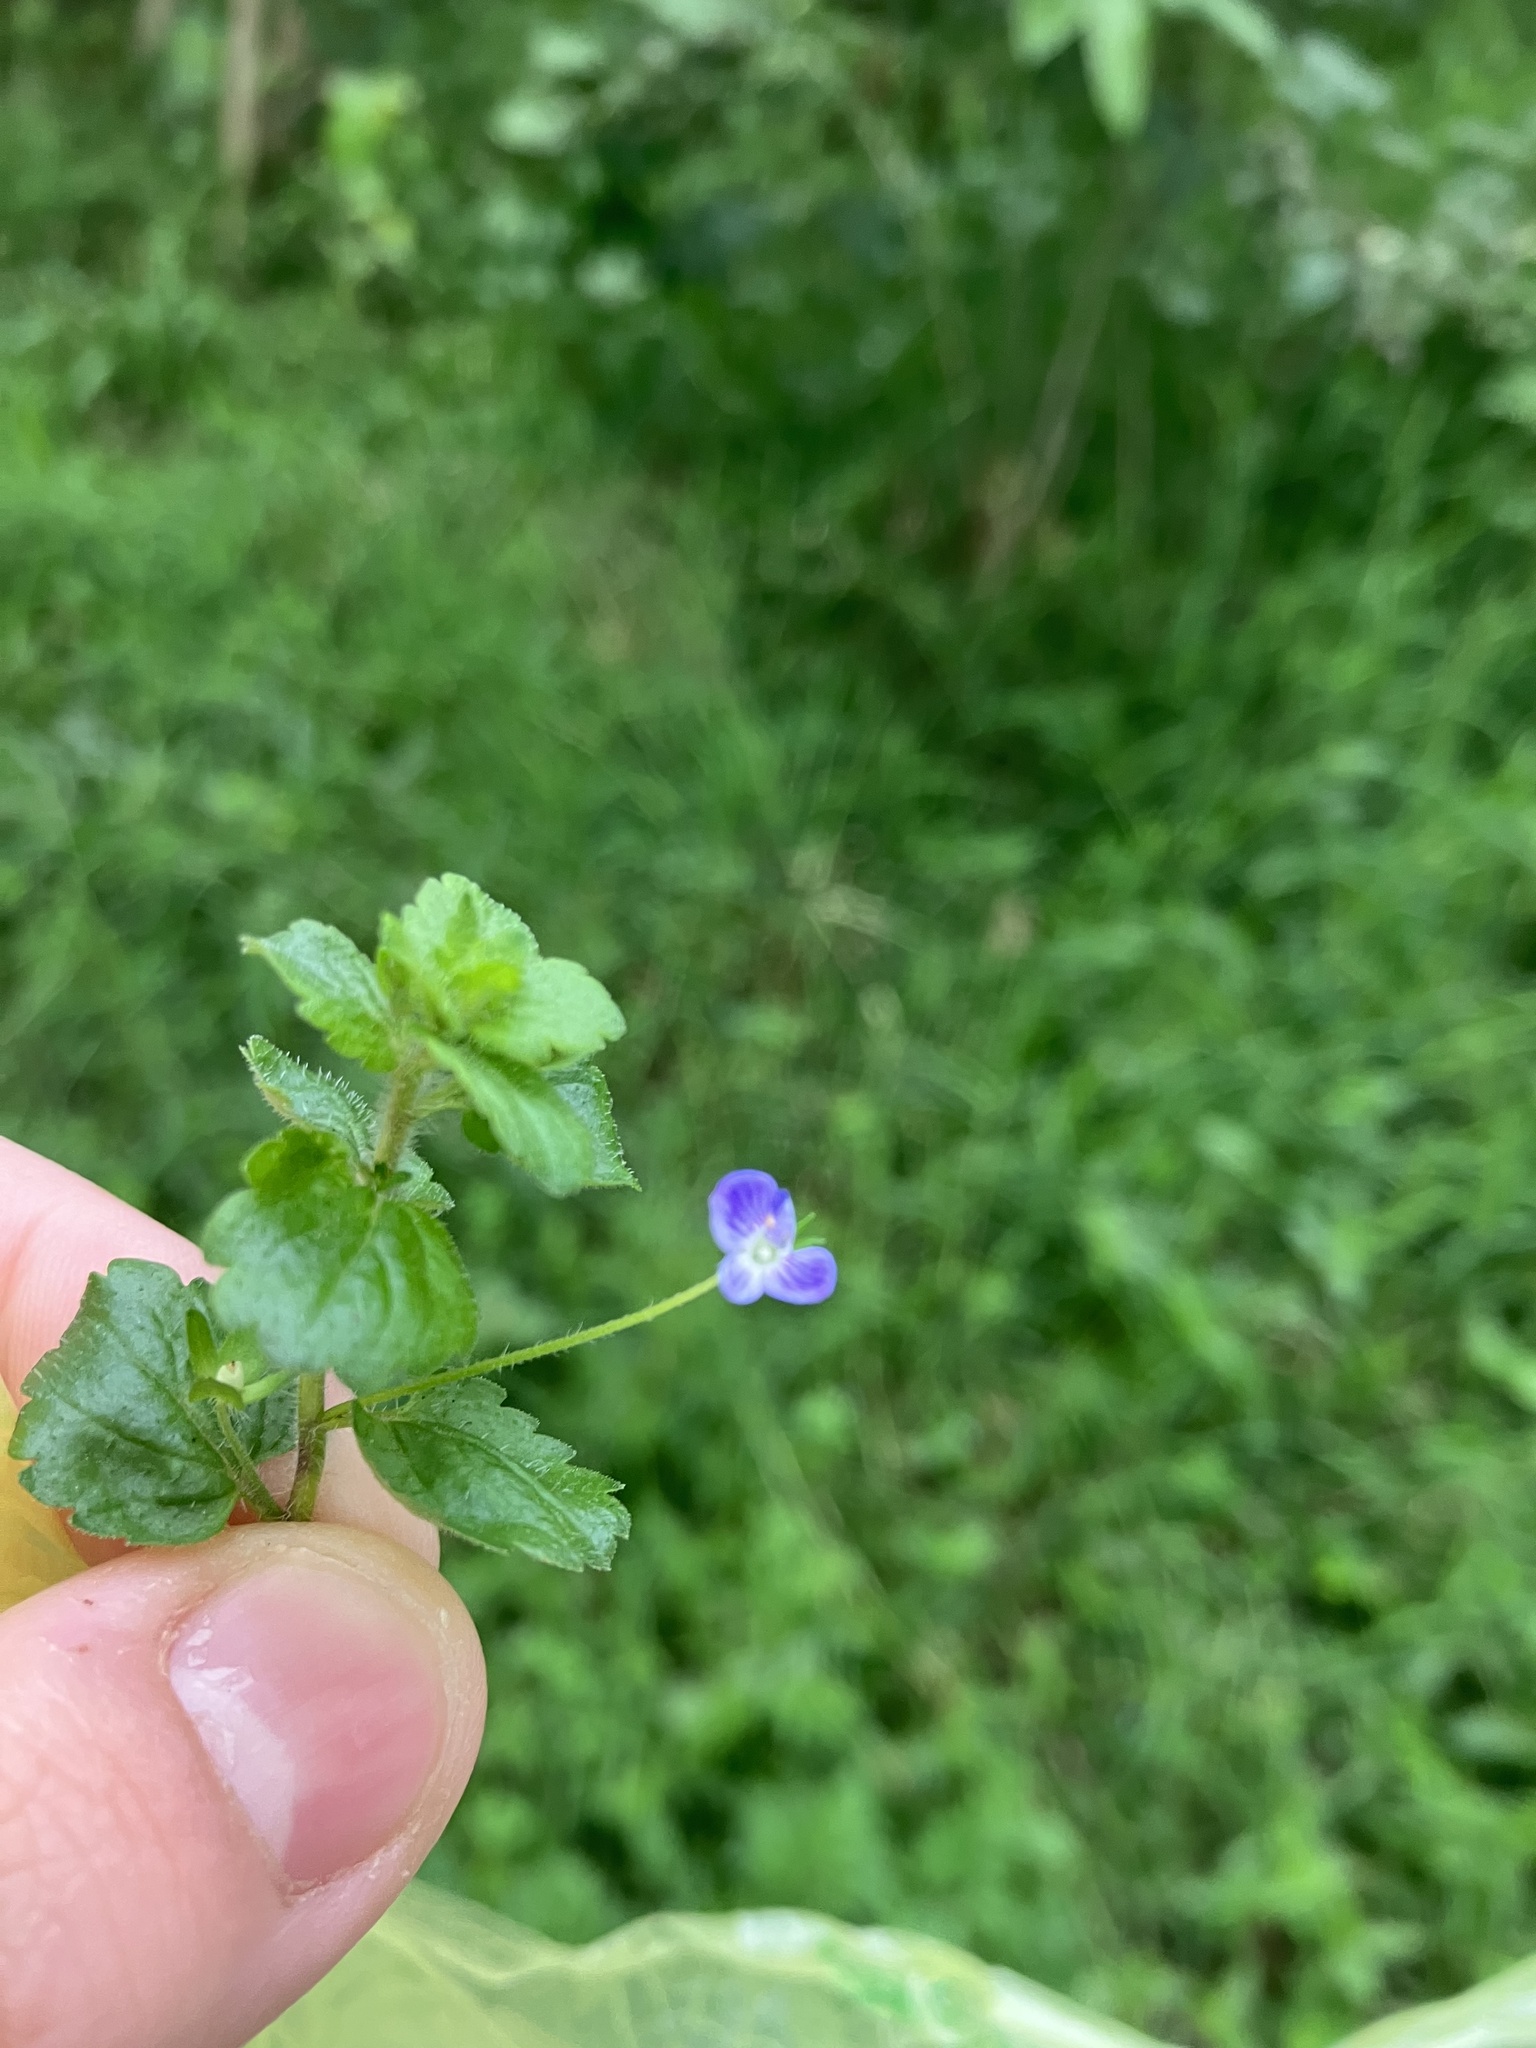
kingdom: Plantae
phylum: Tracheophyta
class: Magnoliopsida
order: Lamiales
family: Plantaginaceae
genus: Veronica
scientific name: Veronica persica
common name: Common field-speedwell
